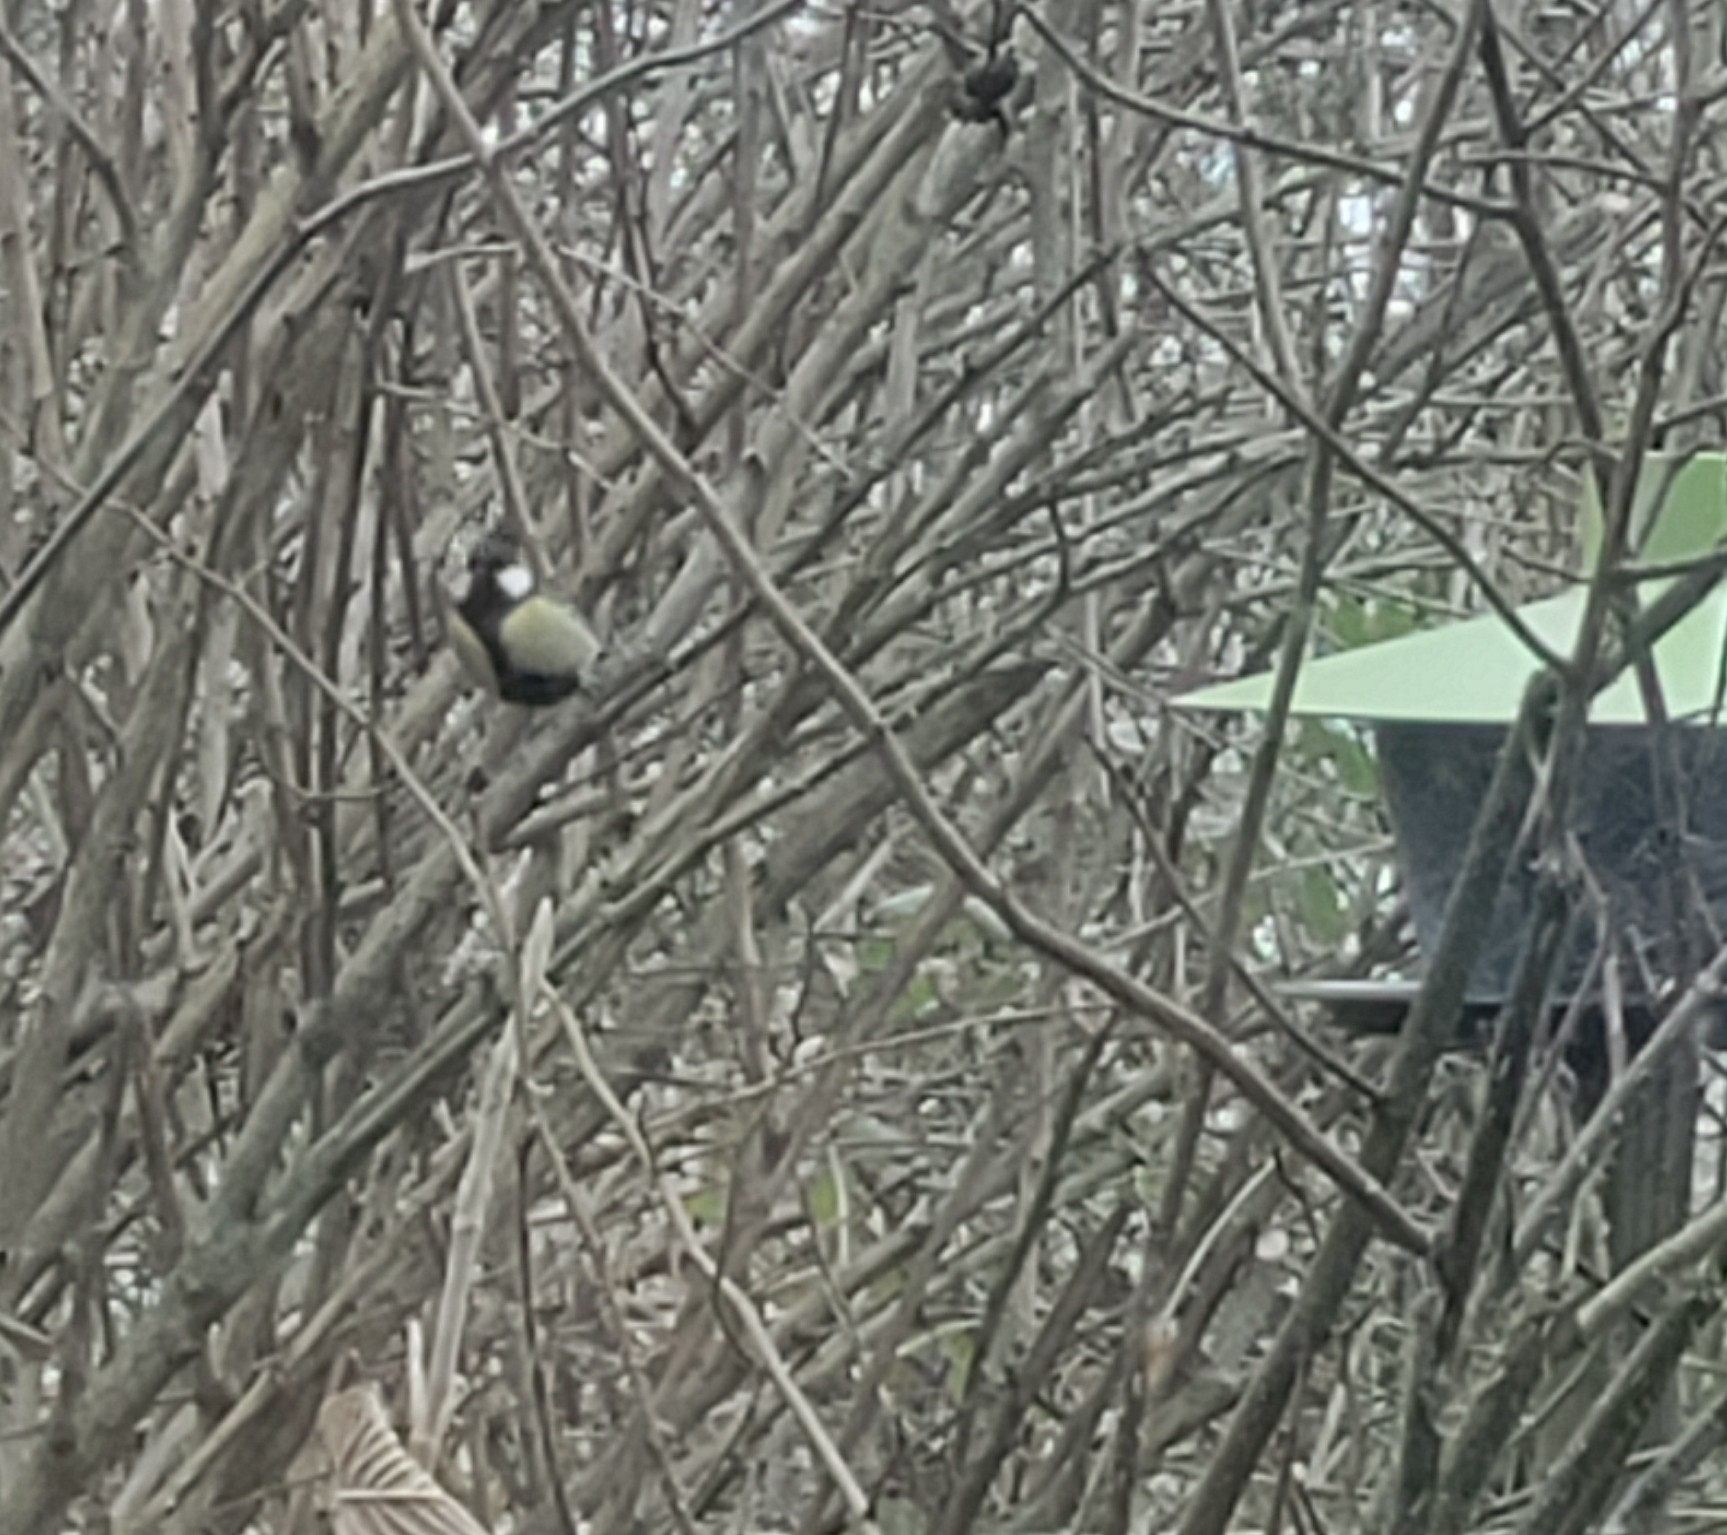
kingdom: Animalia
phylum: Chordata
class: Aves
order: Passeriformes
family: Paridae
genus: Parus
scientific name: Parus major
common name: Great tit
